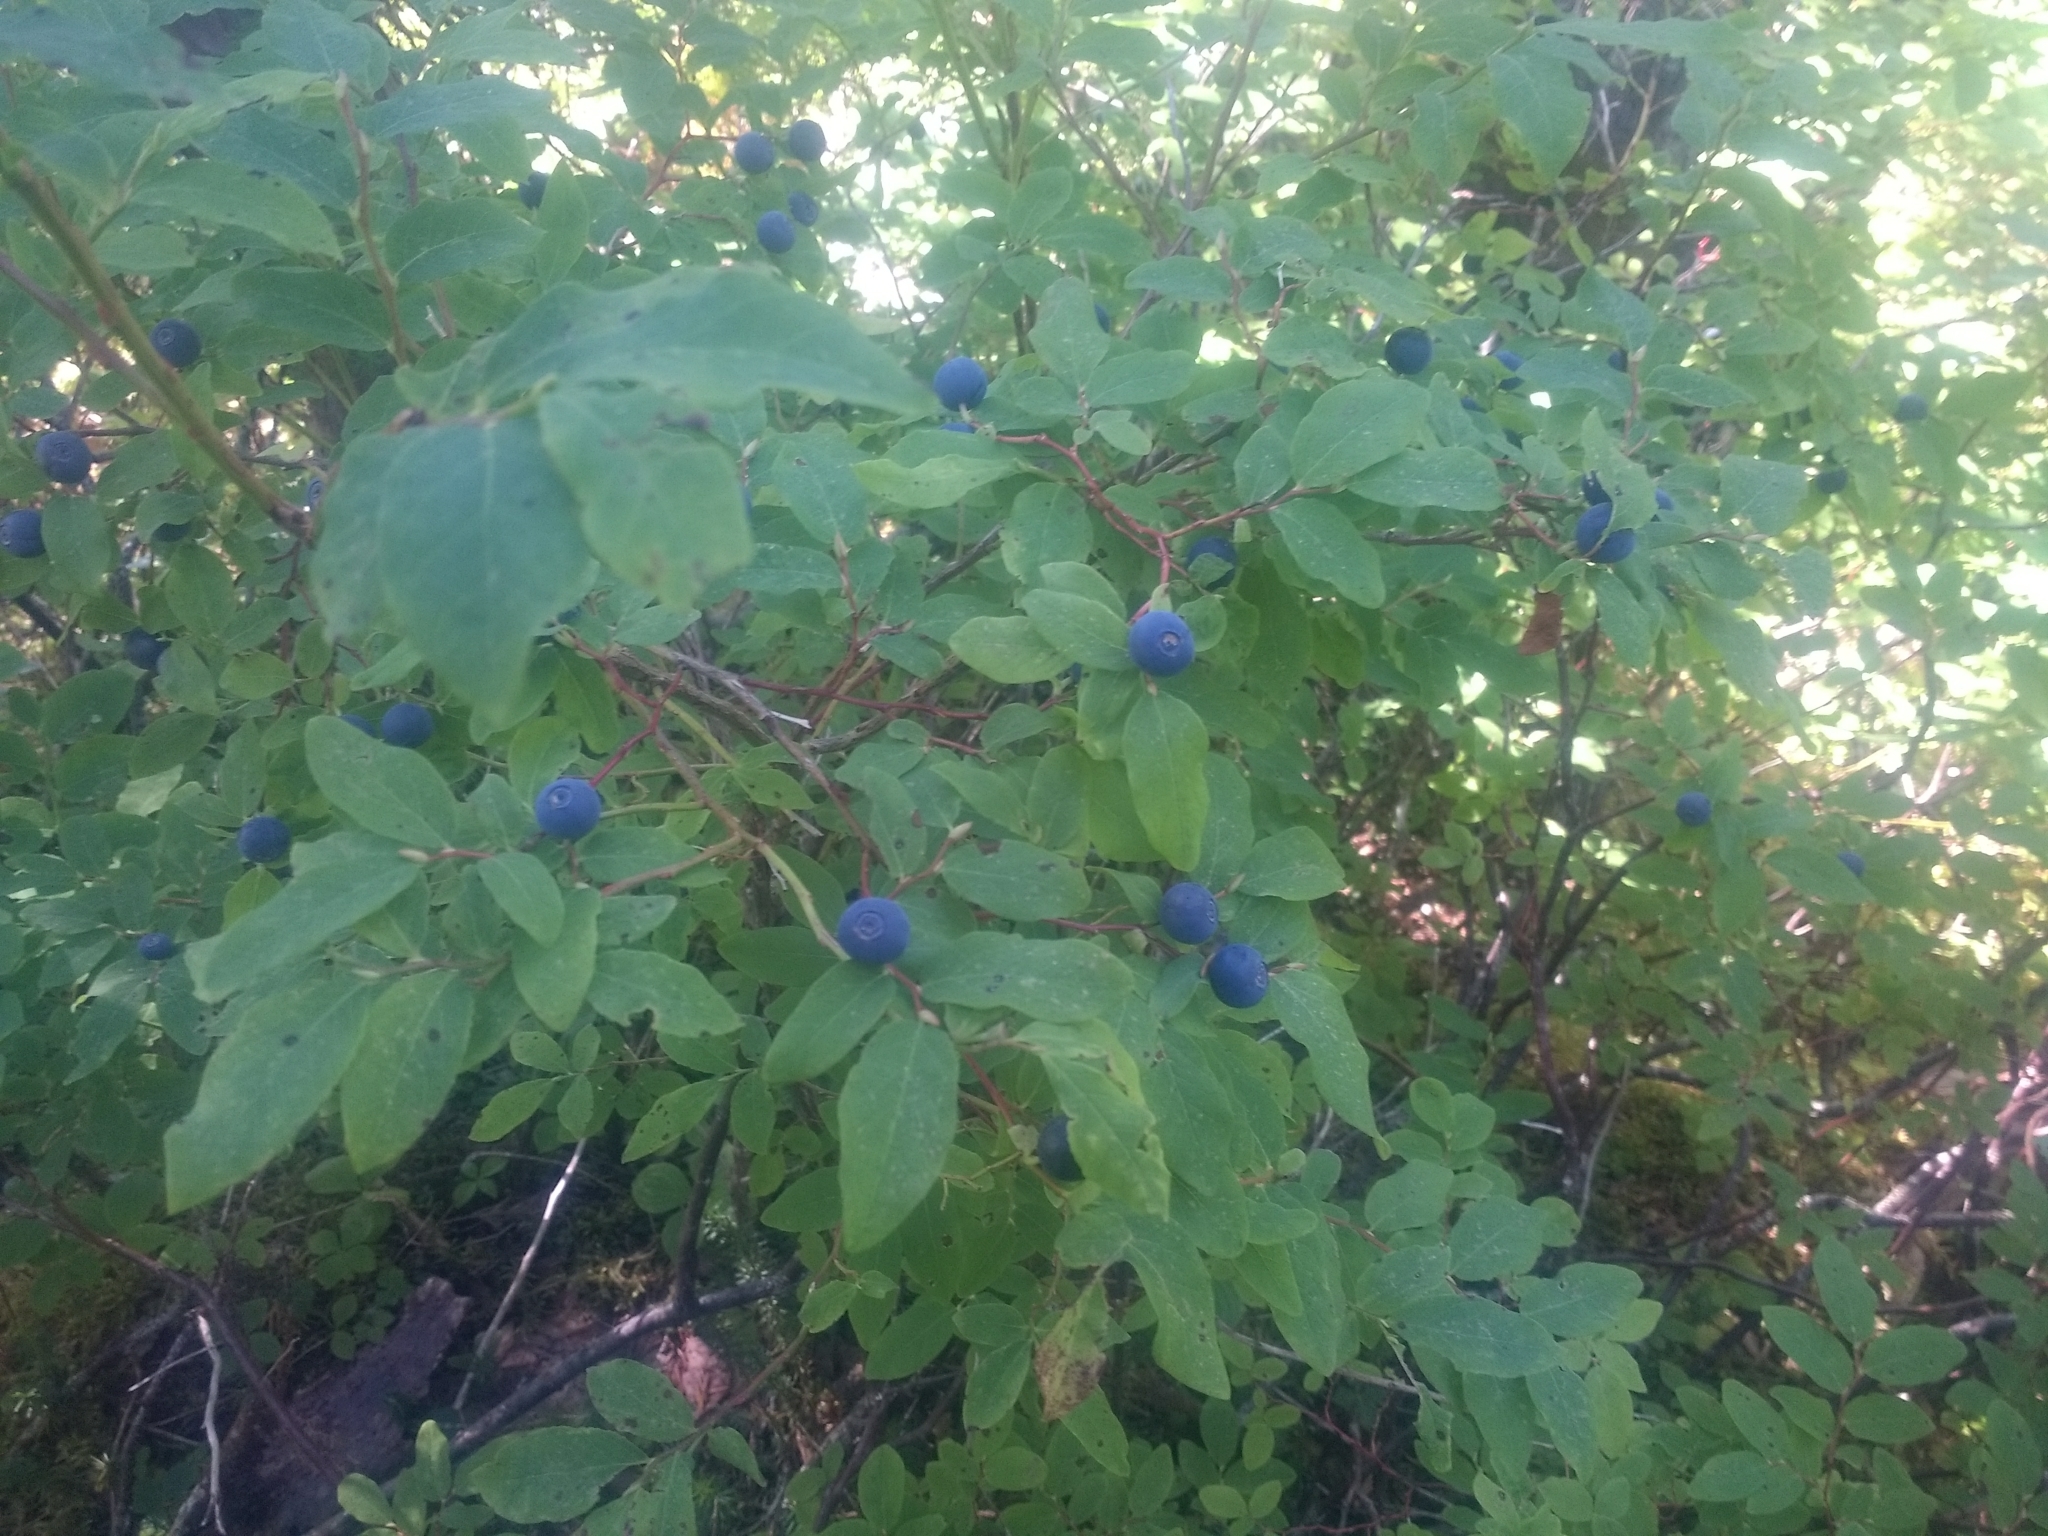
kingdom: Plantae
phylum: Tracheophyta
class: Magnoliopsida
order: Ericales
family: Ericaceae
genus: Vaccinium
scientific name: Vaccinium ovalifolium
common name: Early blueberry
